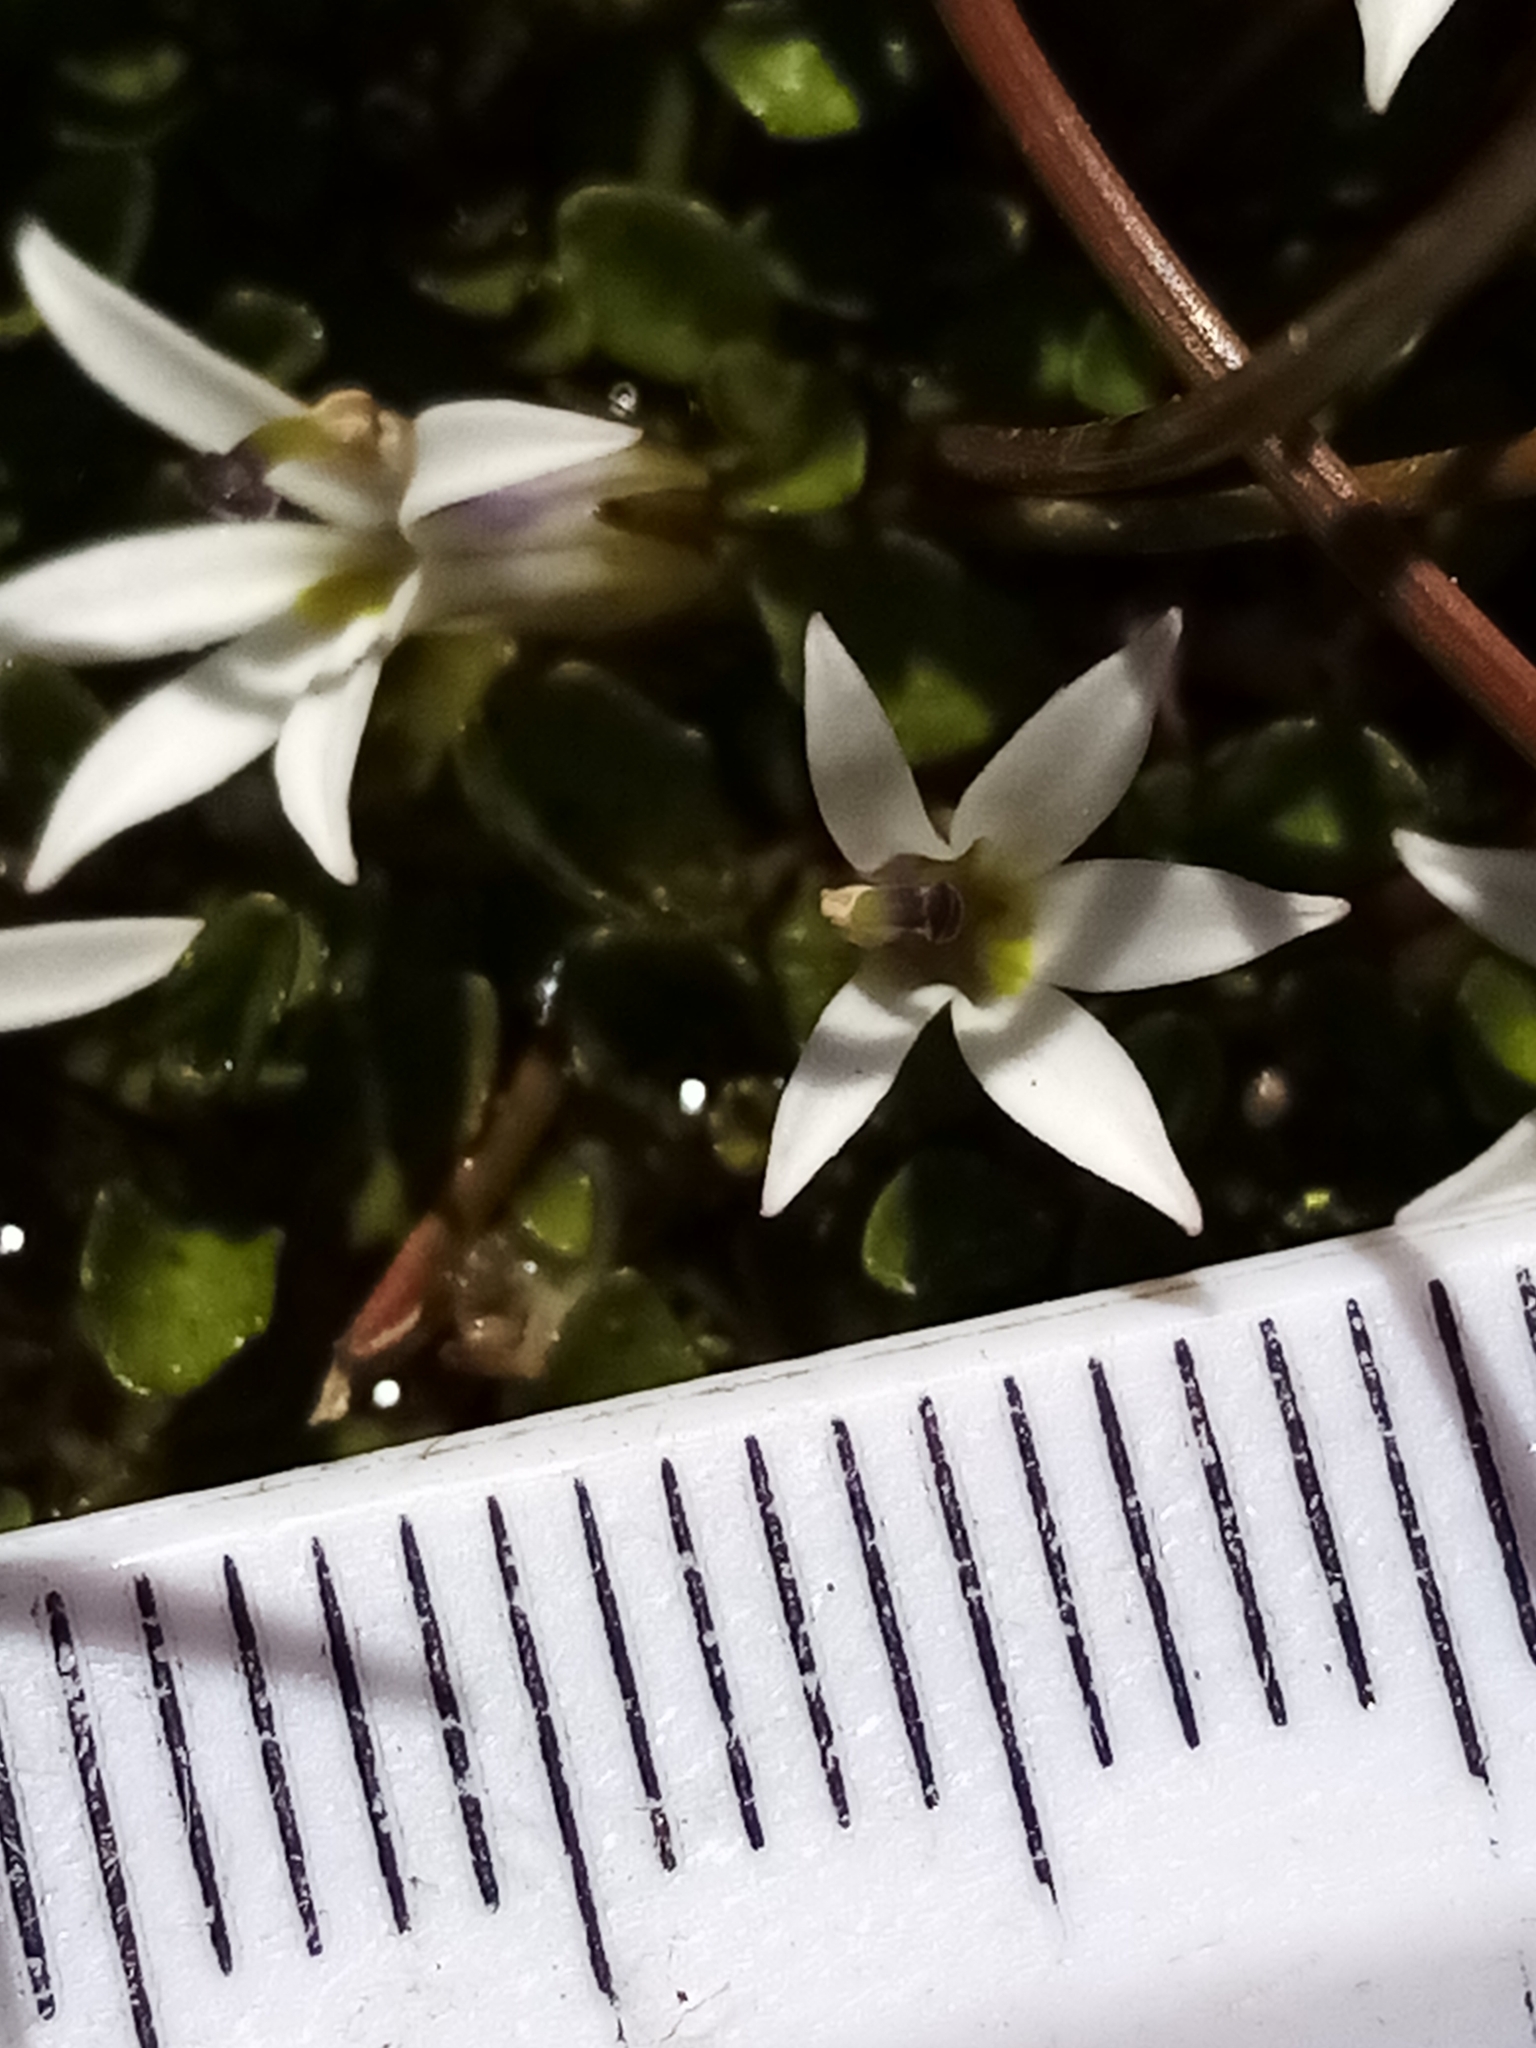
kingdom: Plantae
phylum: Tracheophyta
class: Magnoliopsida
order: Asterales
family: Campanulaceae
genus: Lobelia
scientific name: Lobelia angulata
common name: Lawn lobelia
